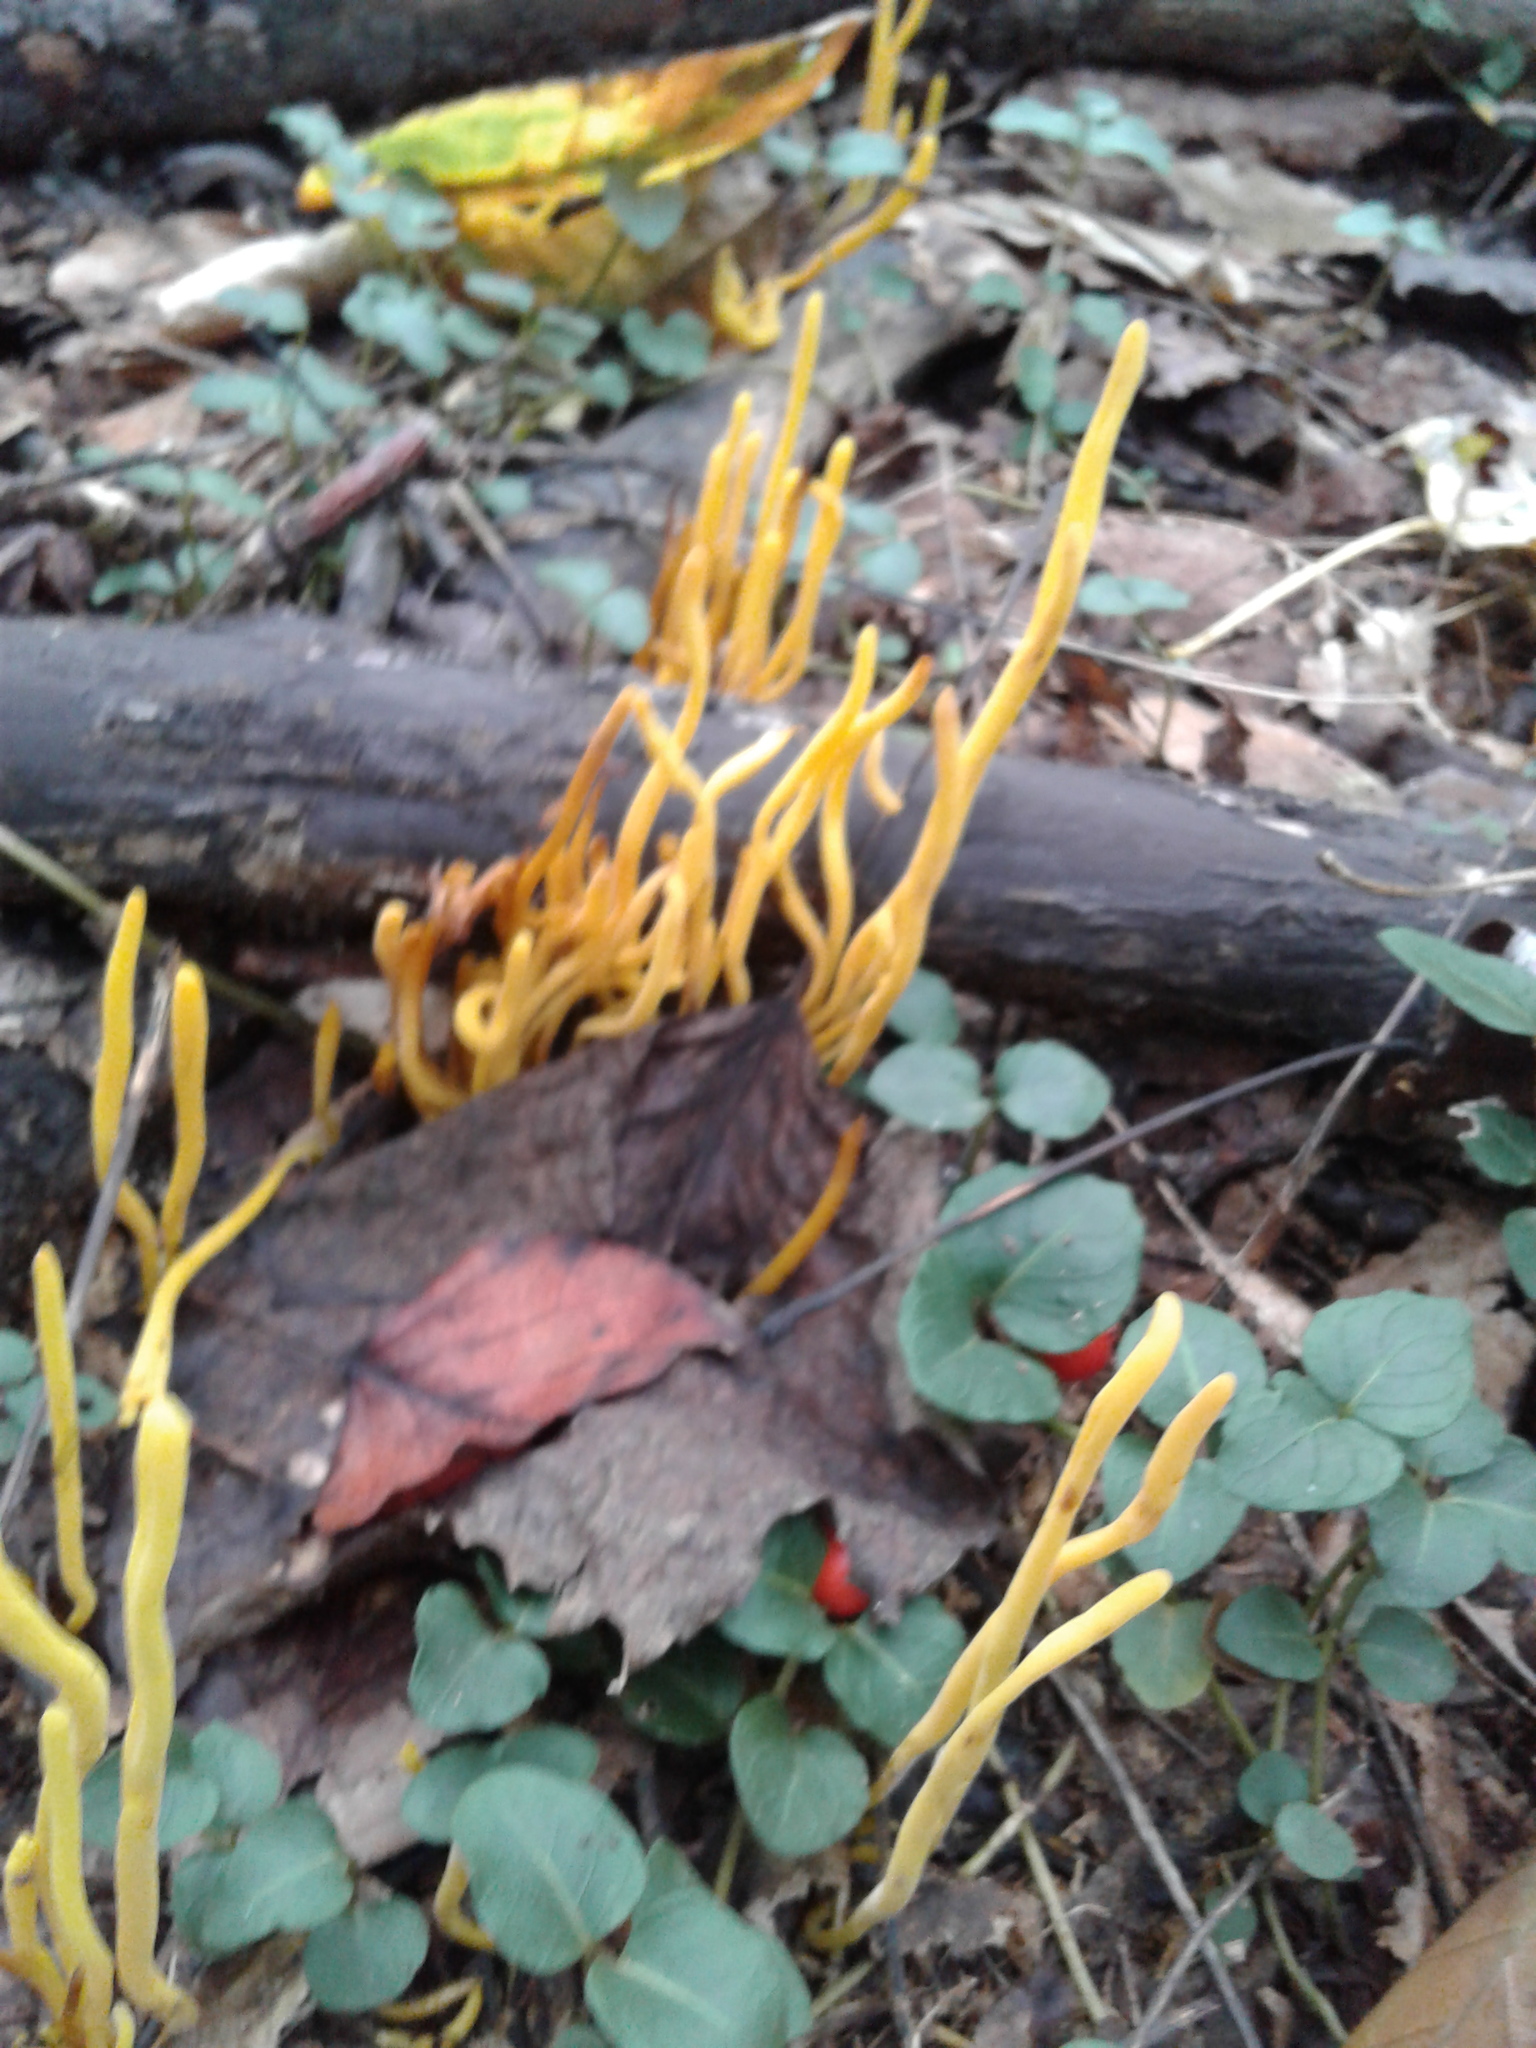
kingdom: Fungi
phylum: Basidiomycota
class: Agaricomycetes
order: Agaricales
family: Clavariaceae
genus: Clavulinopsis
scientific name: Clavulinopsis fusiformis
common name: Golden spindles
